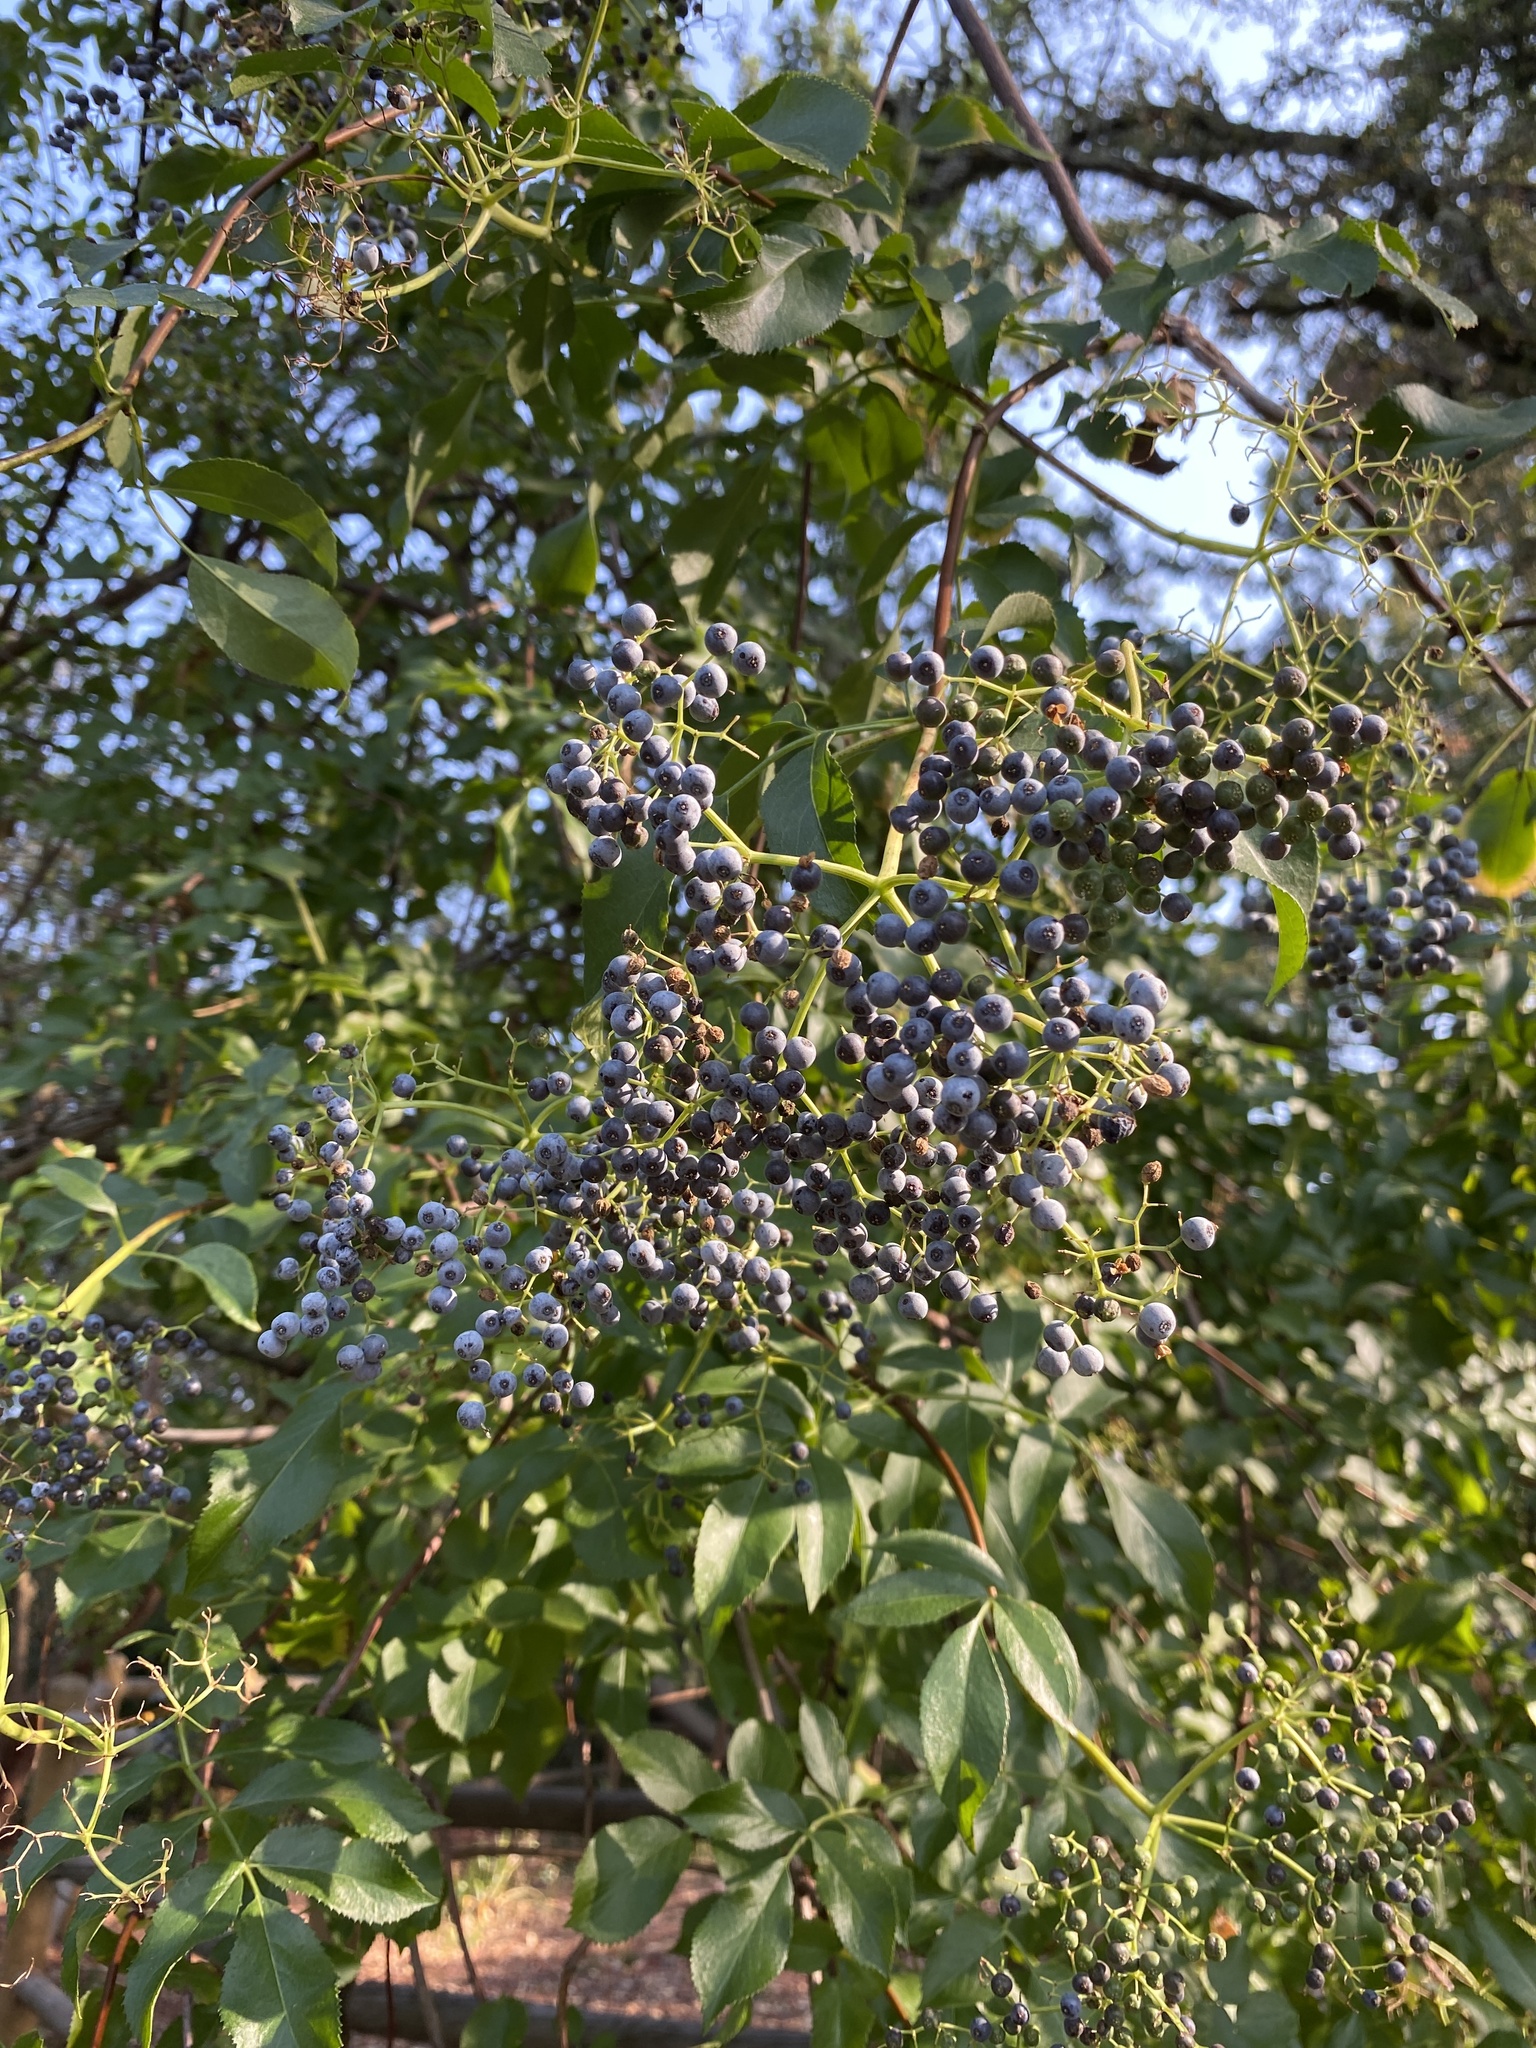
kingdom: Plantae
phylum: Tracheophyta
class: Magnoliopsida
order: Dipsacales
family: Viburnaceae
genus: Sambucus
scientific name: Sambucus cerulea
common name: Blue elder
